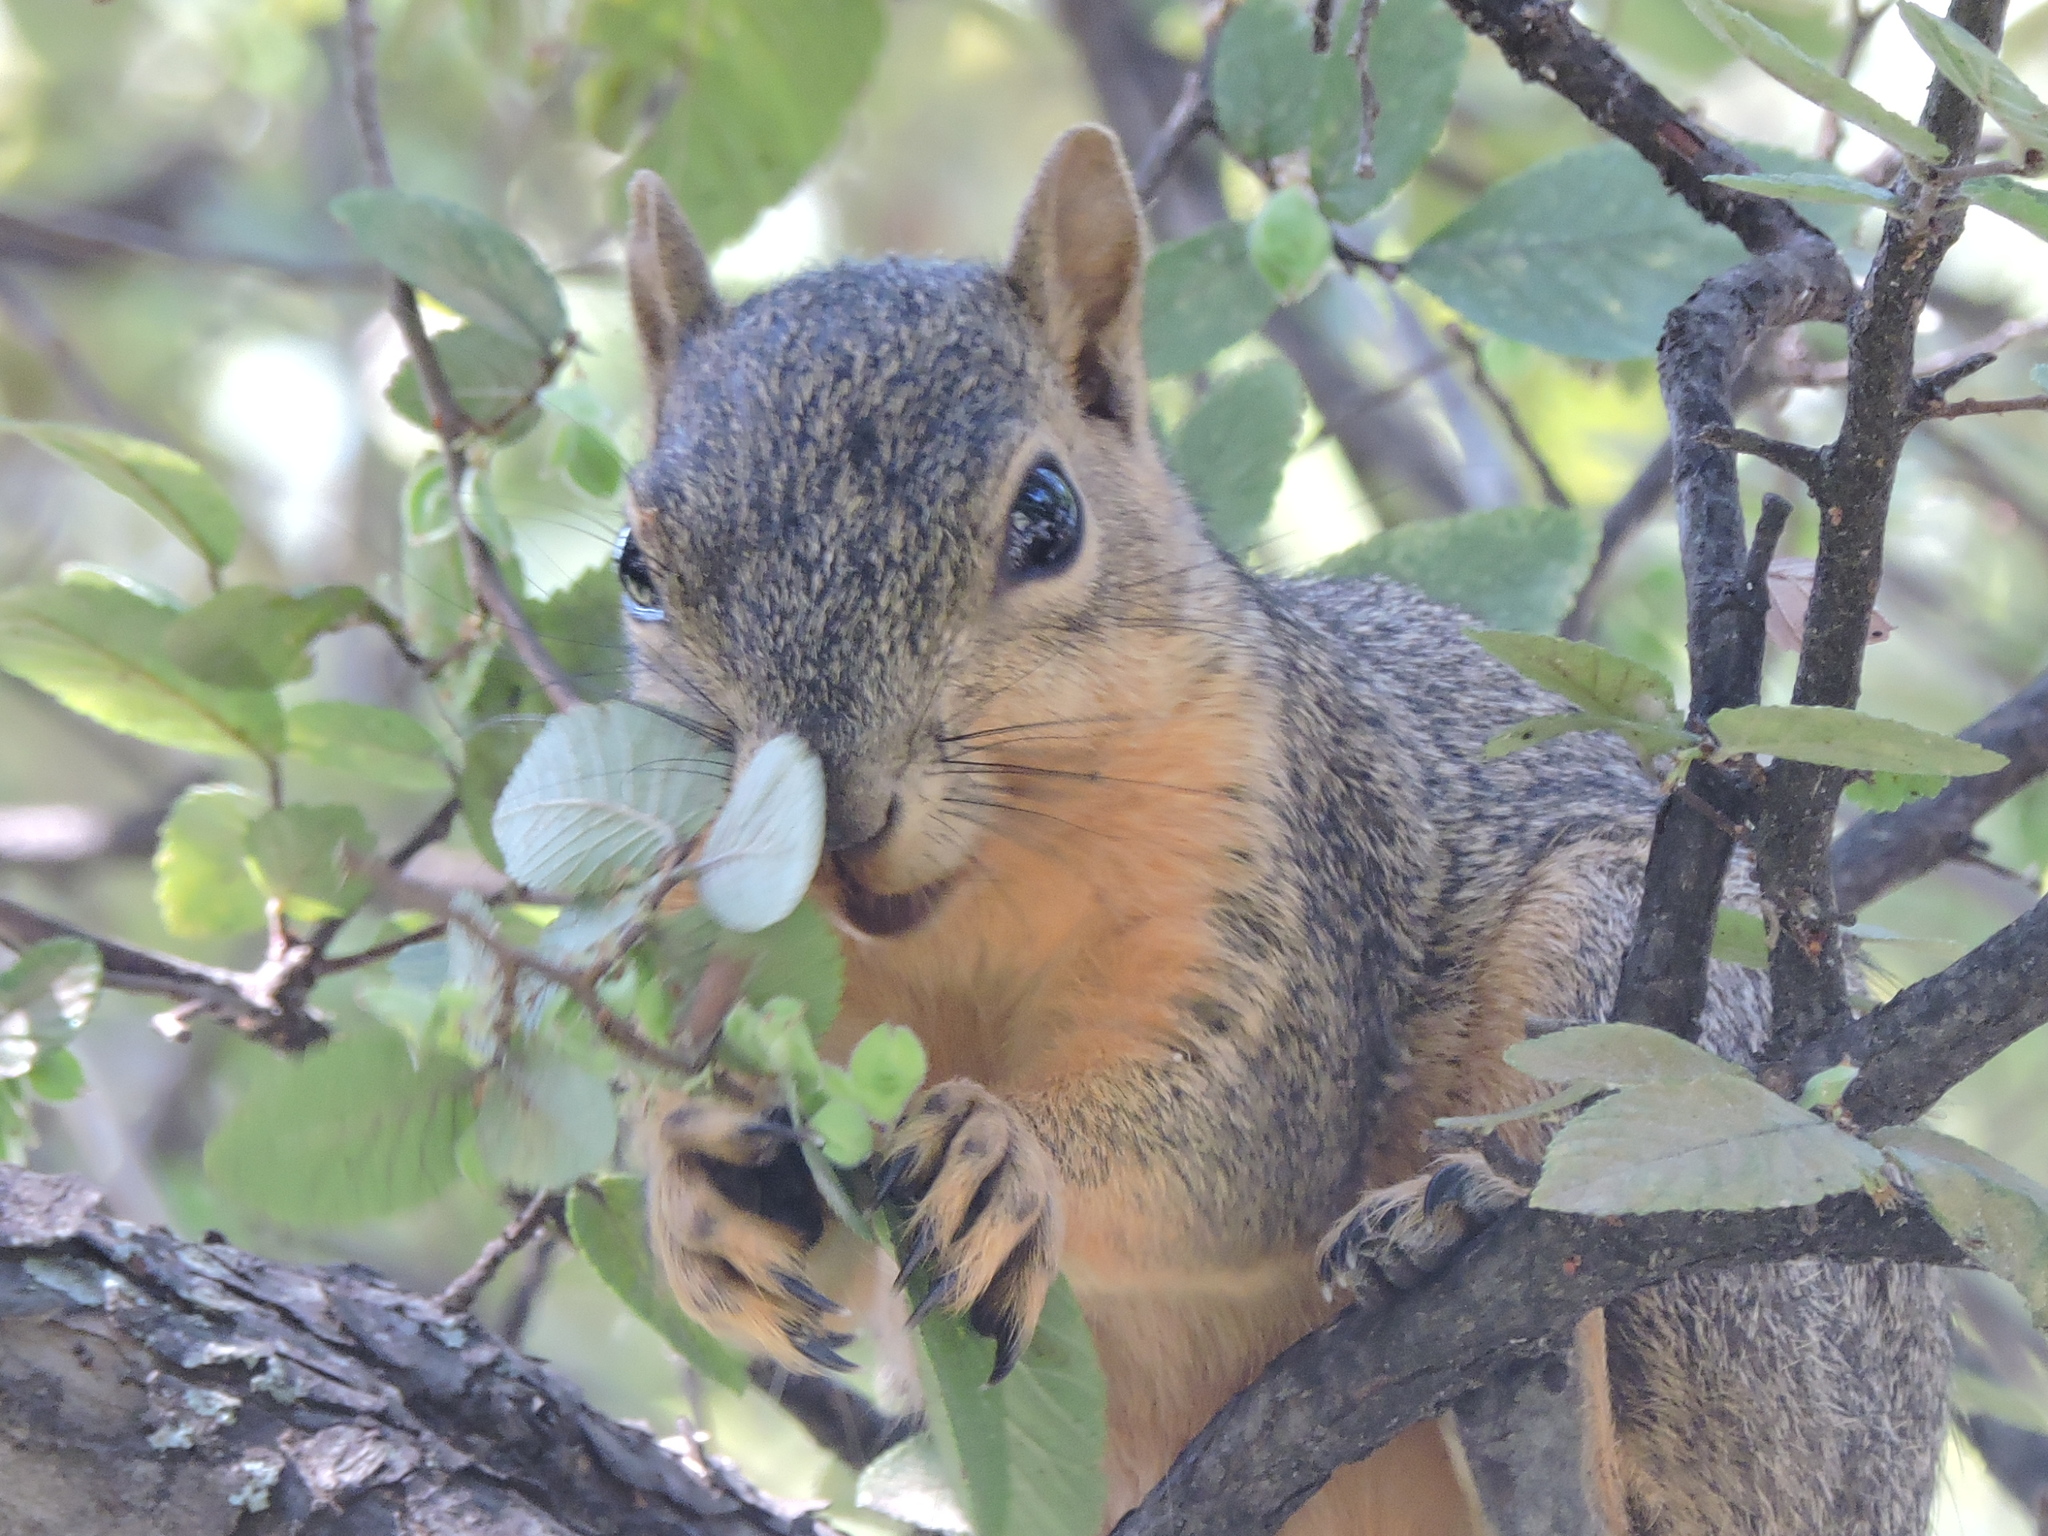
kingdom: Animalia
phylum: Chordata
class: Mammalia
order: Rodentia
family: Sciuridae
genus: Sciurus
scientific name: Sciurus niger
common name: Fox squirrel
